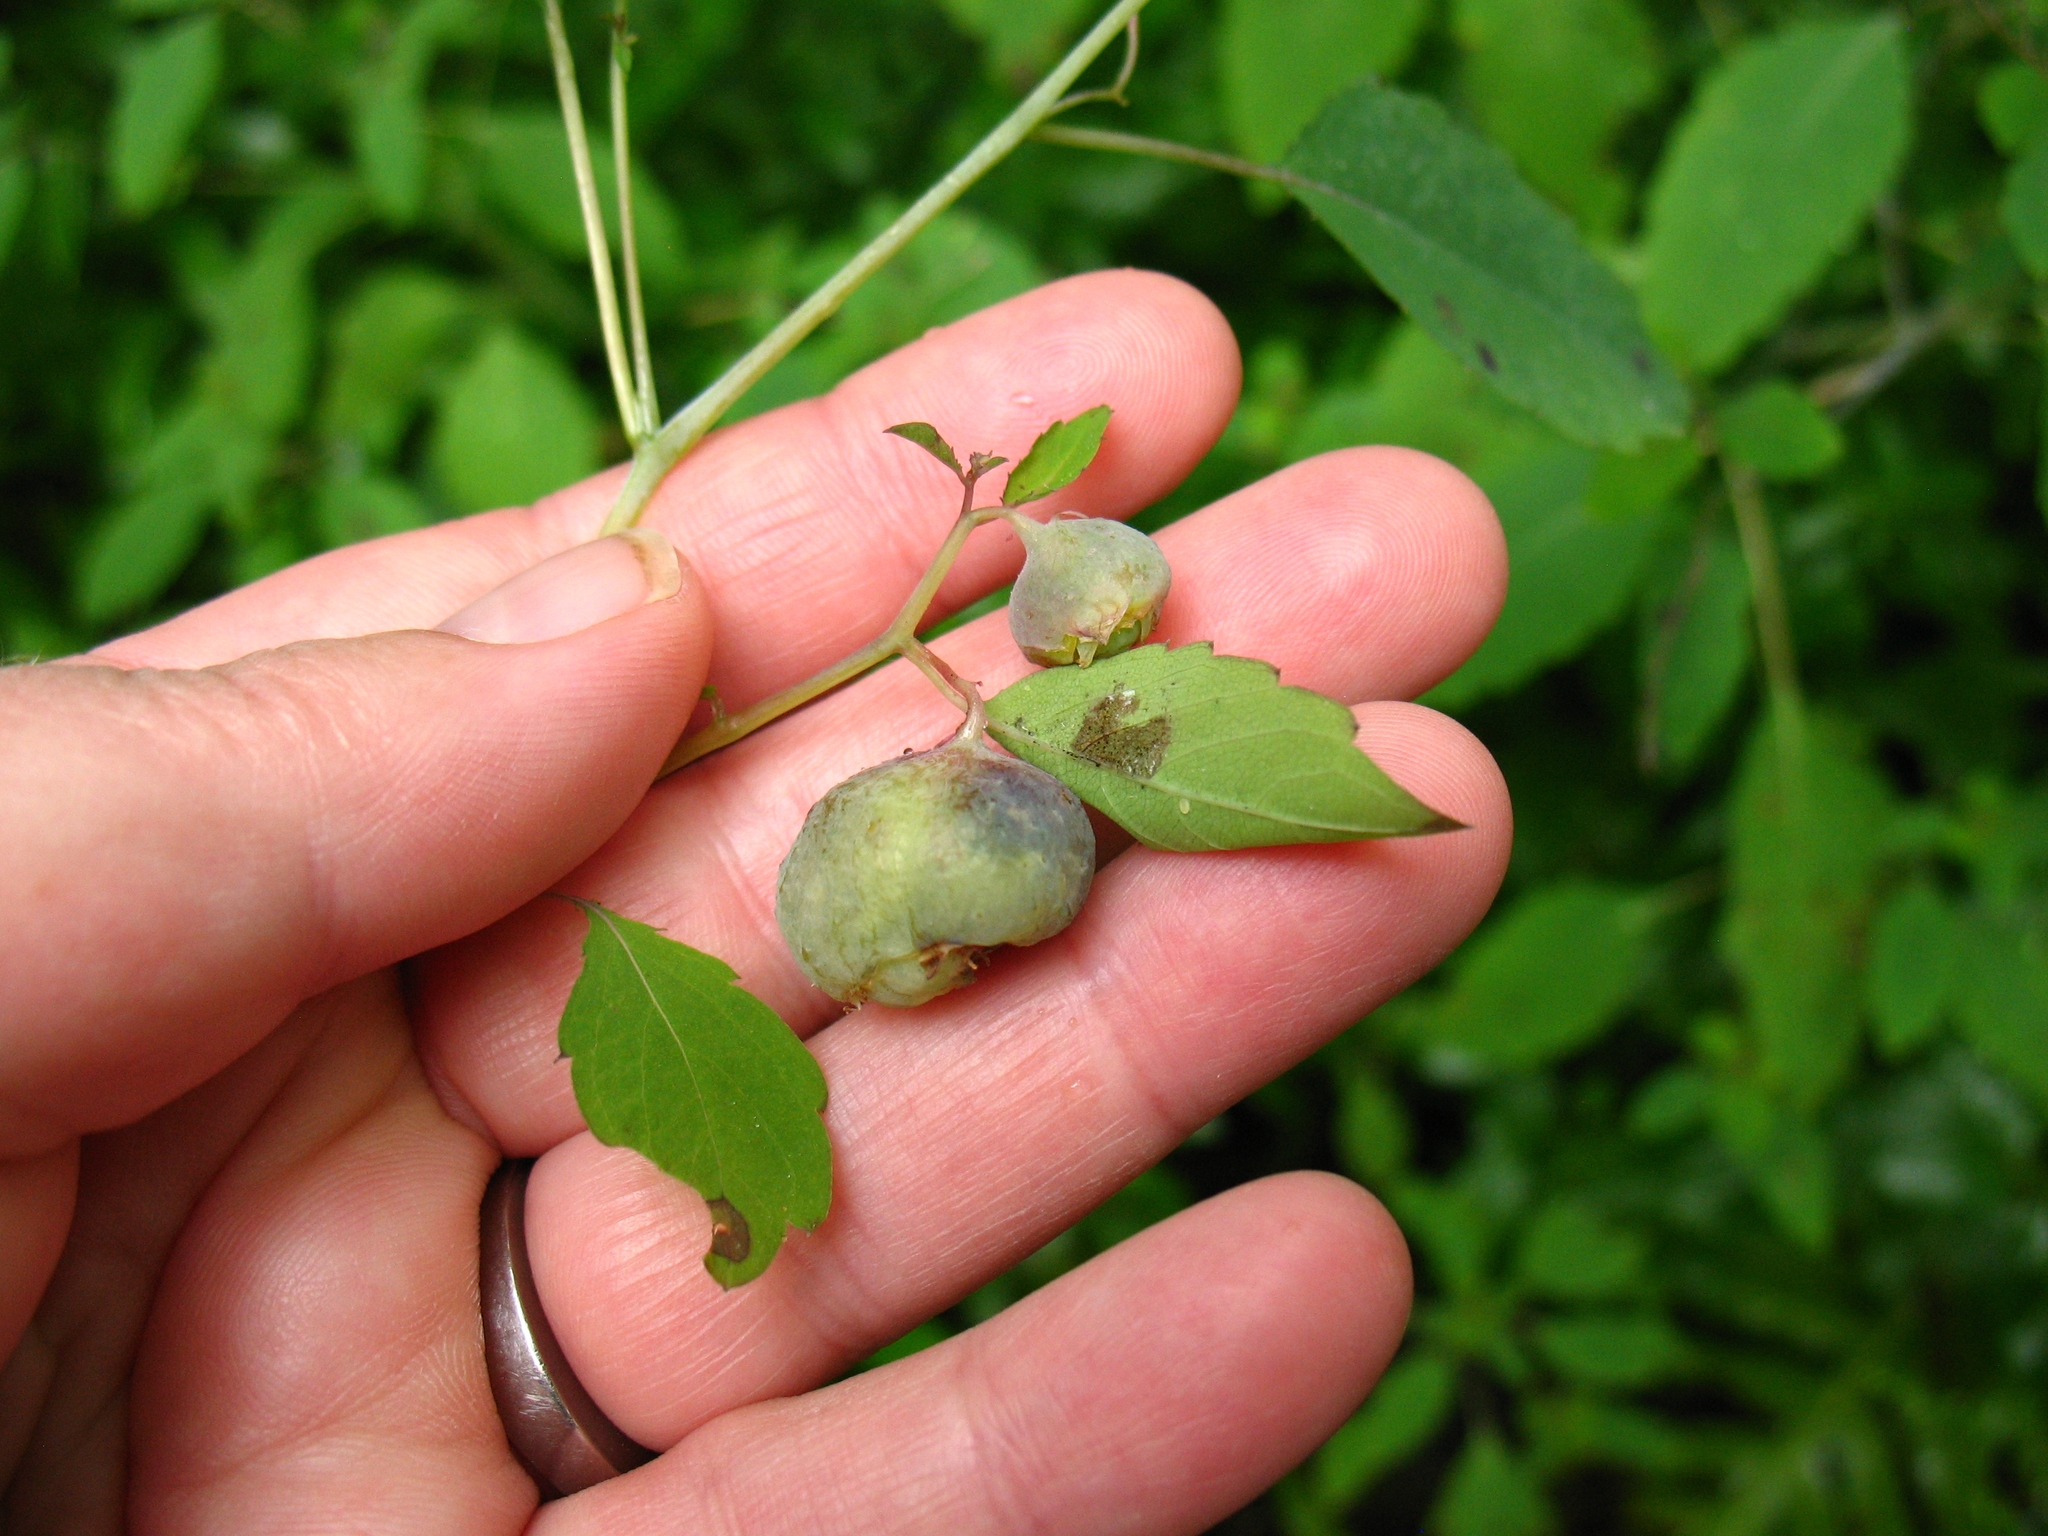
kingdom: Animalia
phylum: Arthropoda
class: Insecta
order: Diptera
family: Cecidomyiidae
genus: Schizomyia
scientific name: Schizomyia impatientis
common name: Jewelweed gall midge
